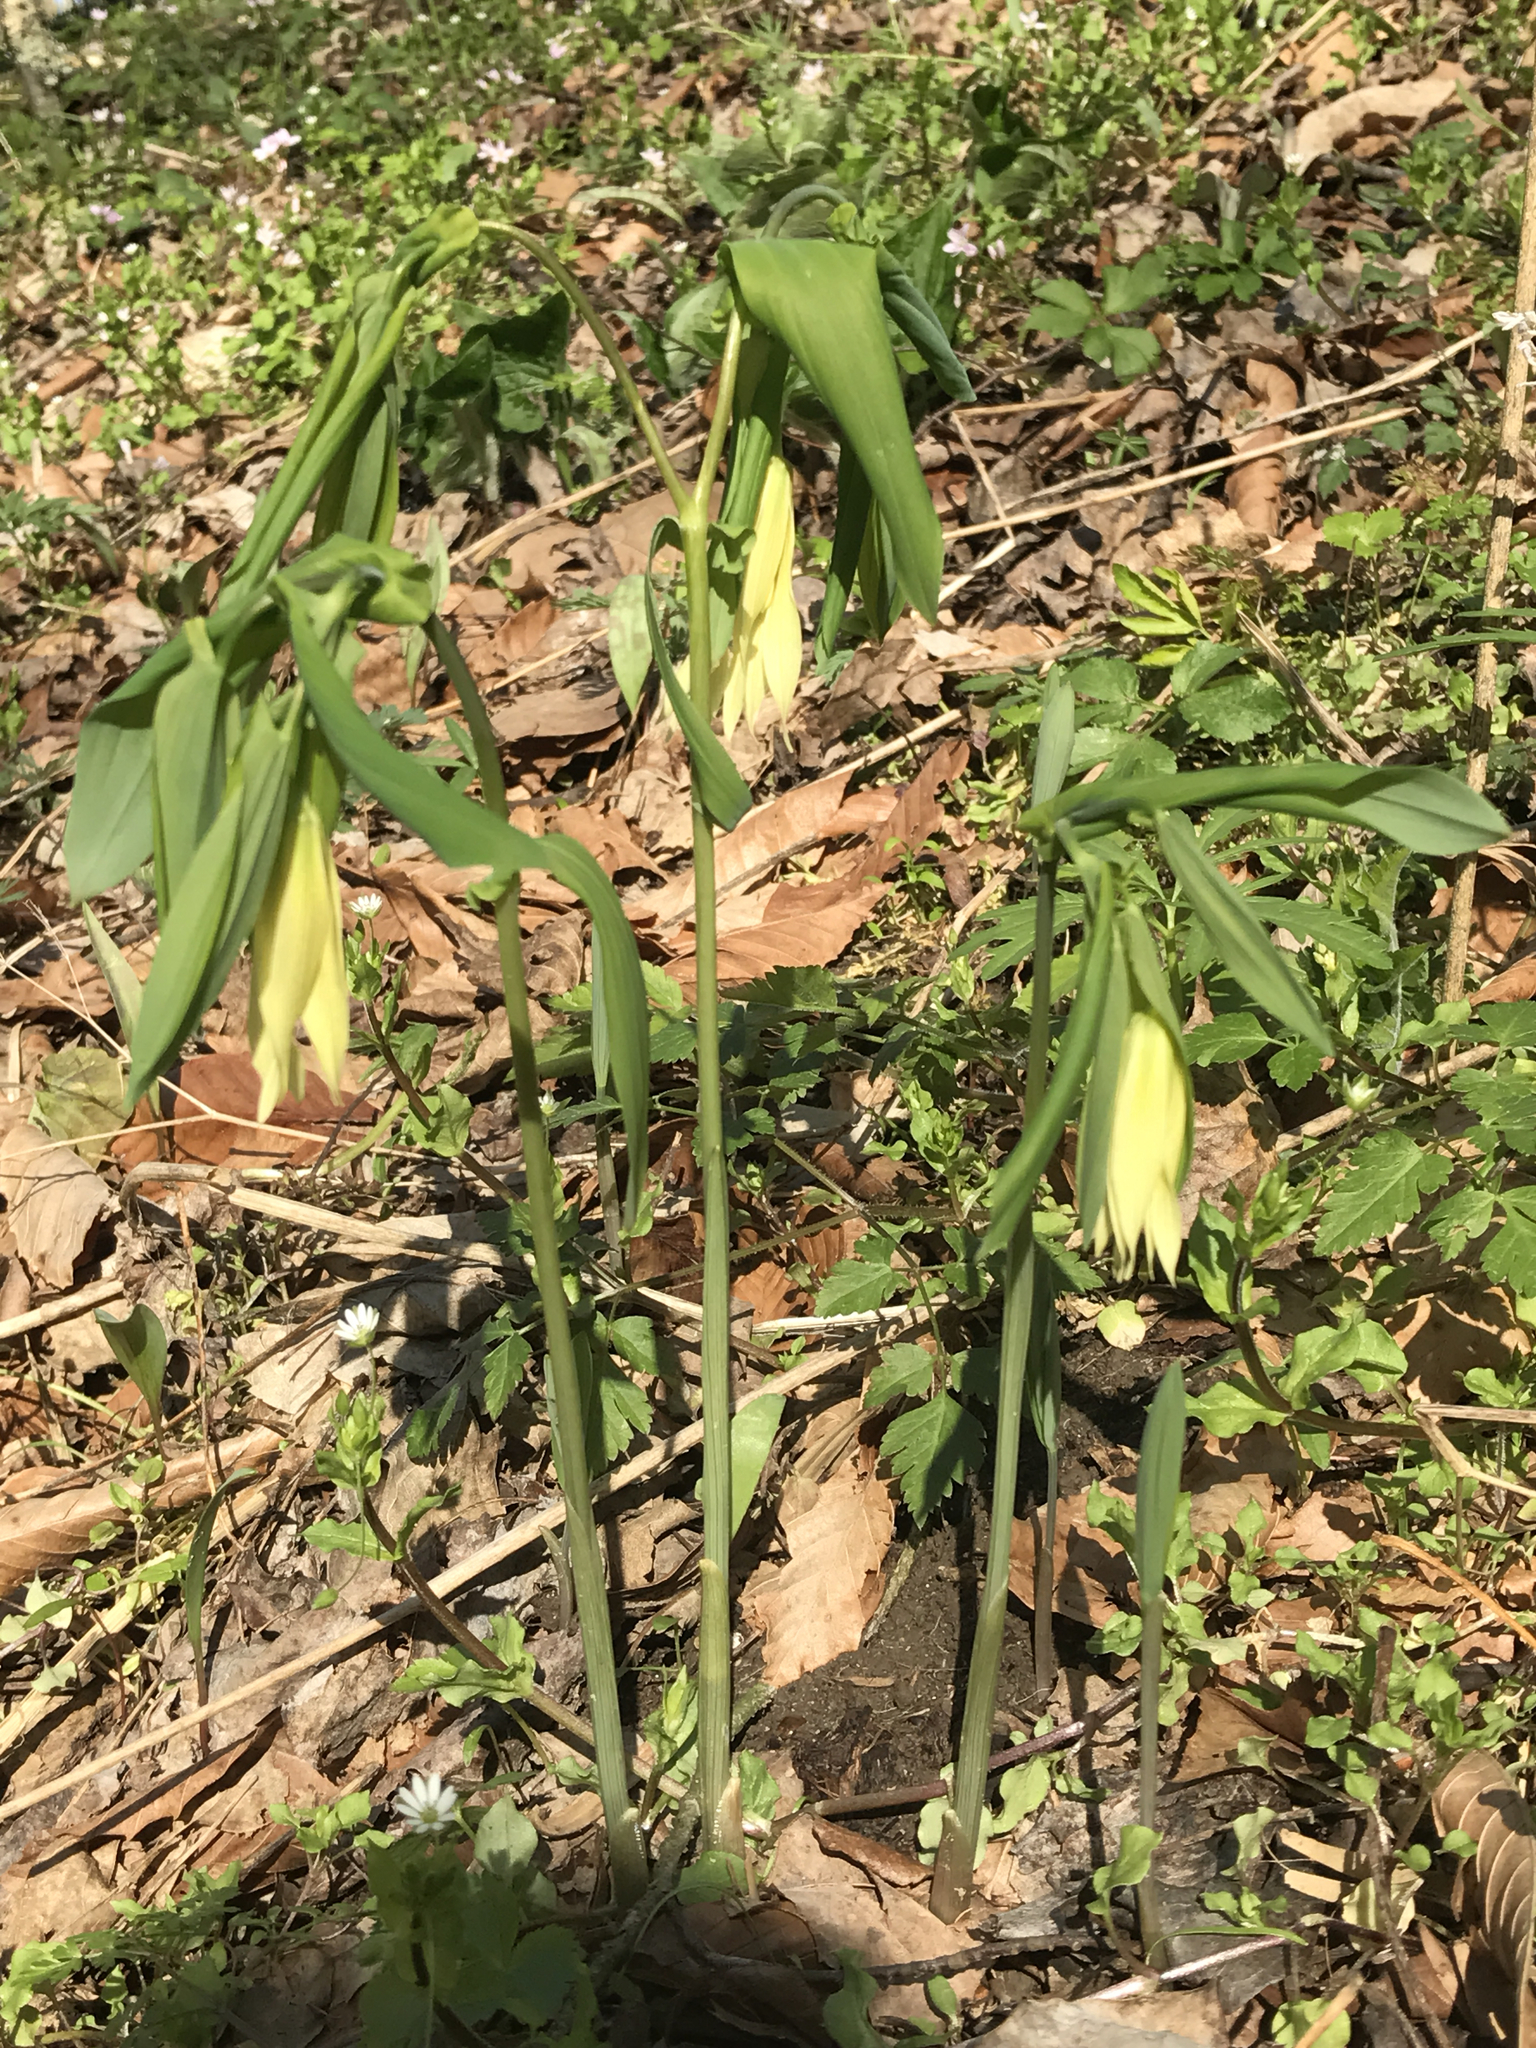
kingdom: Plantae
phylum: Tracheophyta
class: Liliopsida
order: Liliales
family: Colchicaceae
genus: Uvularia
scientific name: Uvularia grandiflora
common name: Bellwort
